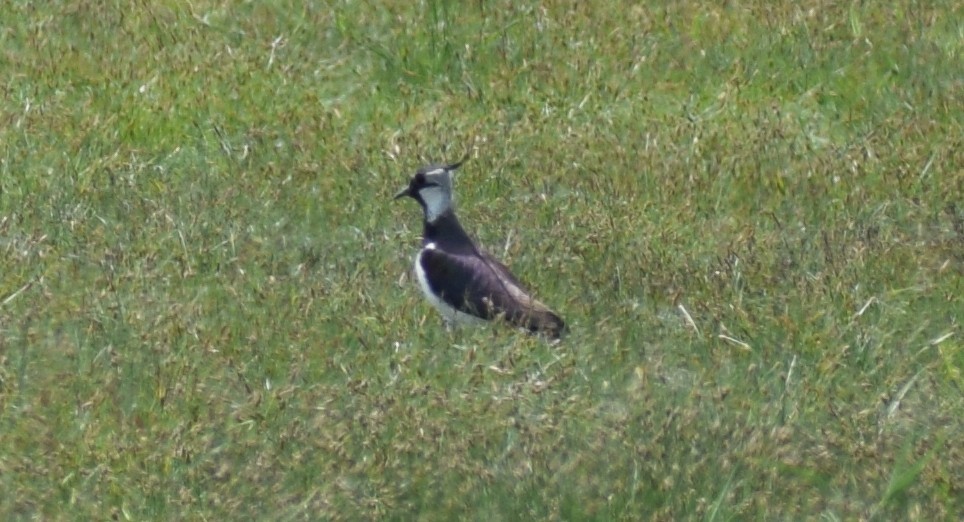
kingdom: Animalia
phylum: Chordata
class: Aves
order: Charadriiformes
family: Charadriidae
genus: Vanellus
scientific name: Vanellus vanellus
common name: Northern lapwing
